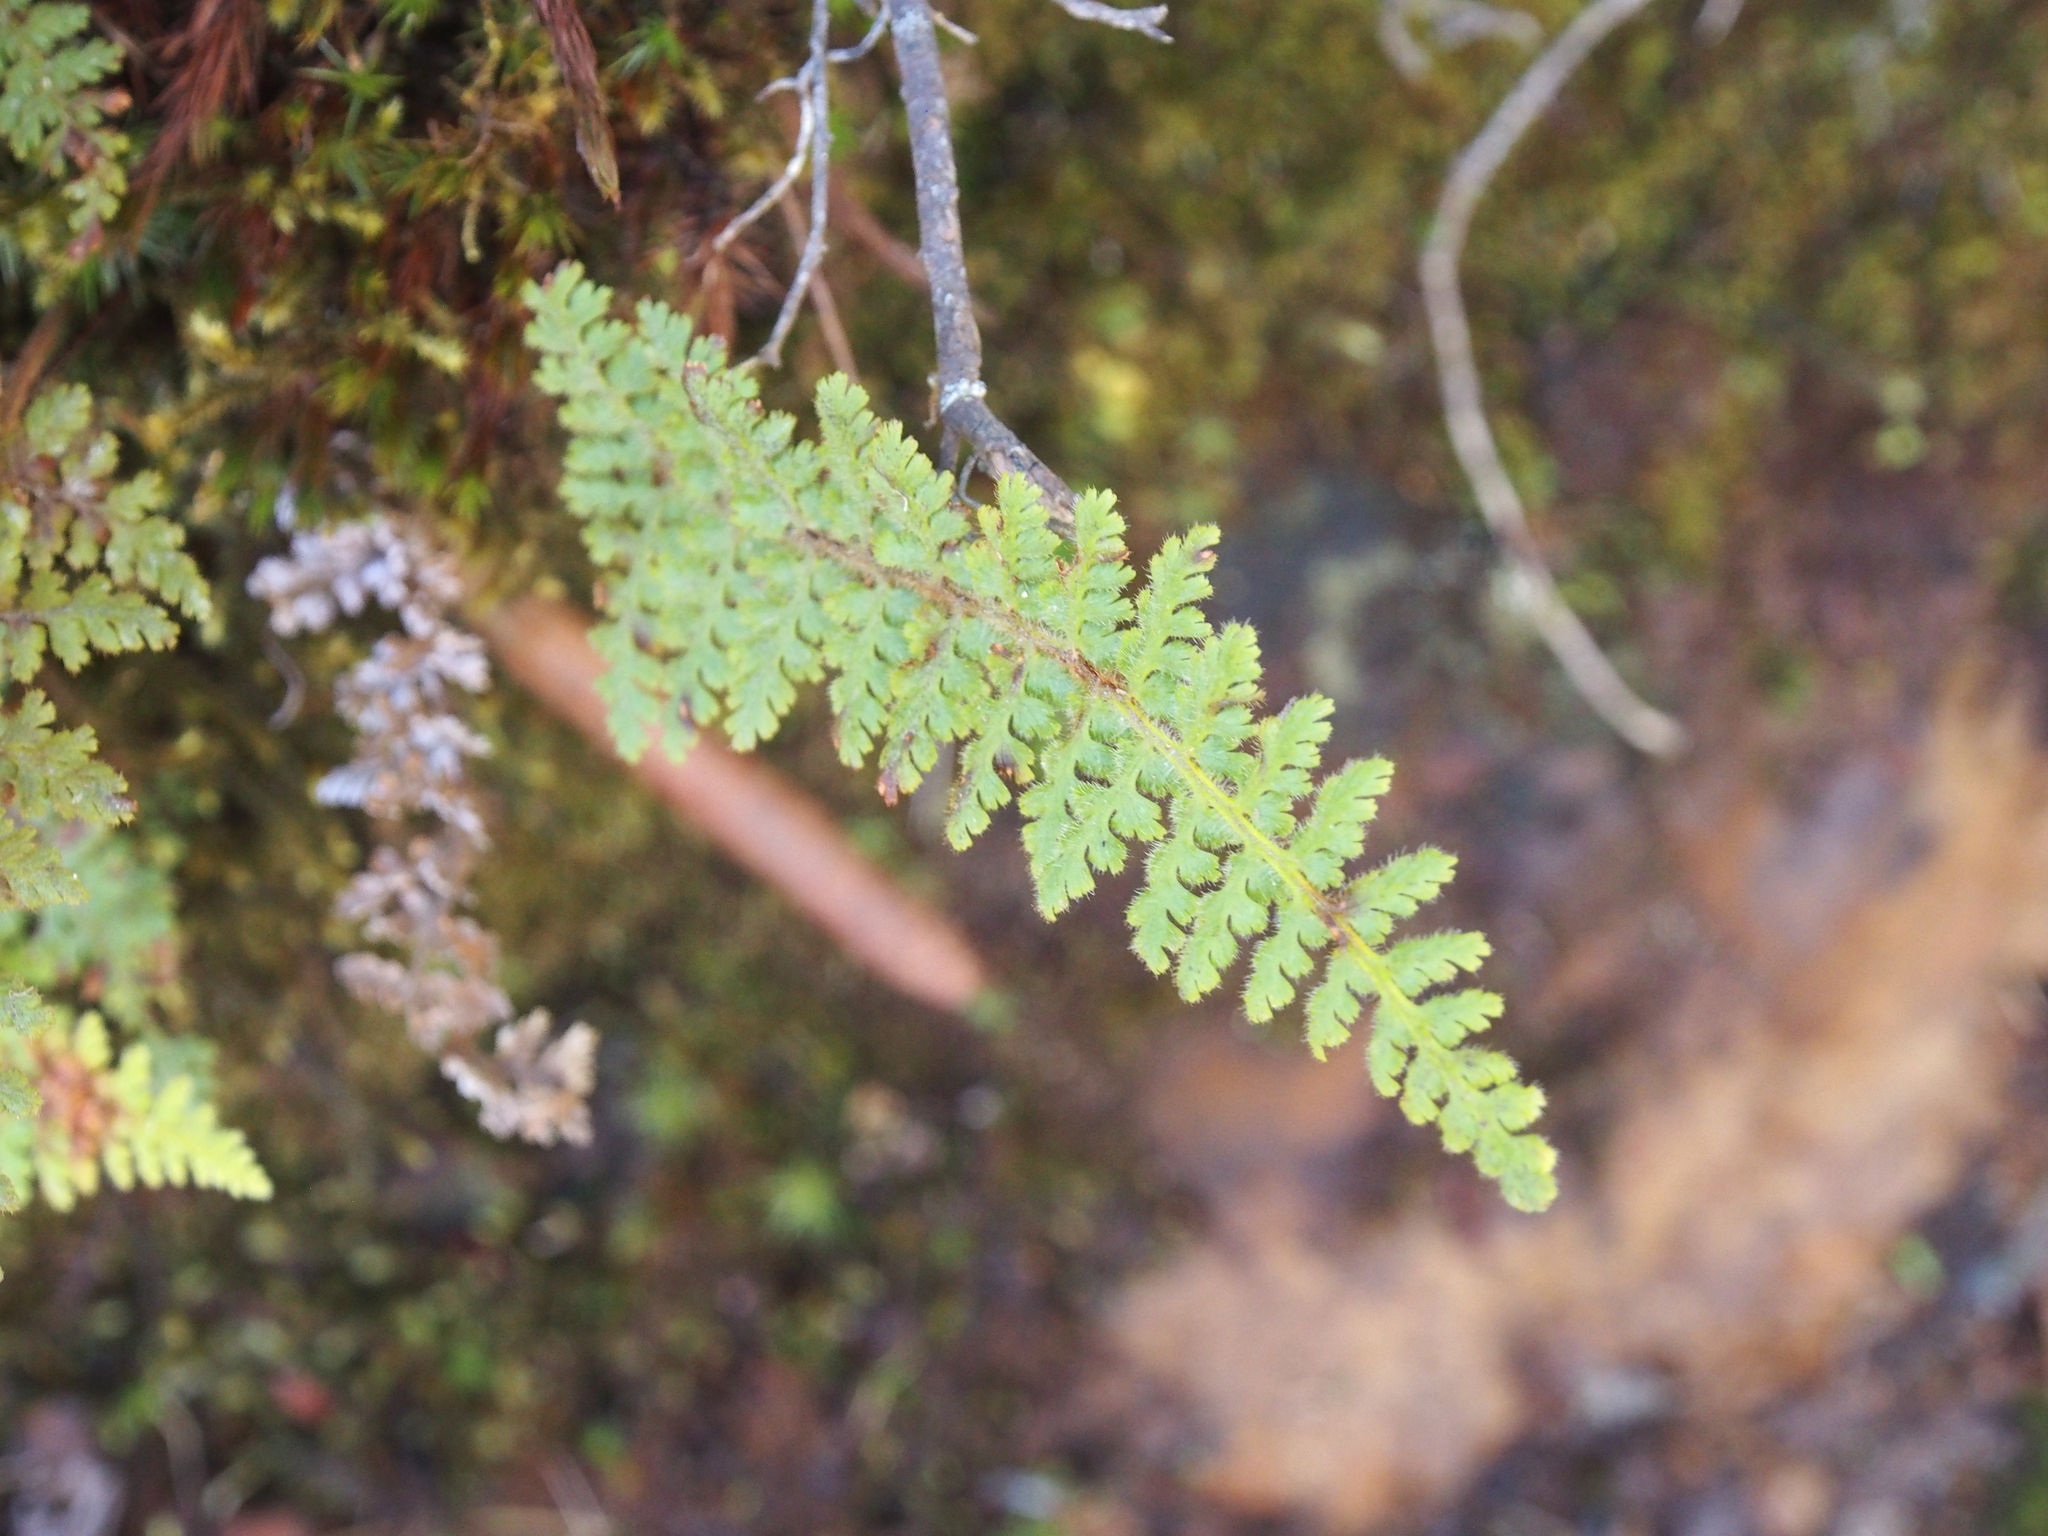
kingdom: Plantae
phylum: Tracheophyta
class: Polypodiopsida
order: Polypodiales
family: Pteridaceae
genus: Jamesonia
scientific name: Jamesonia rufescens
